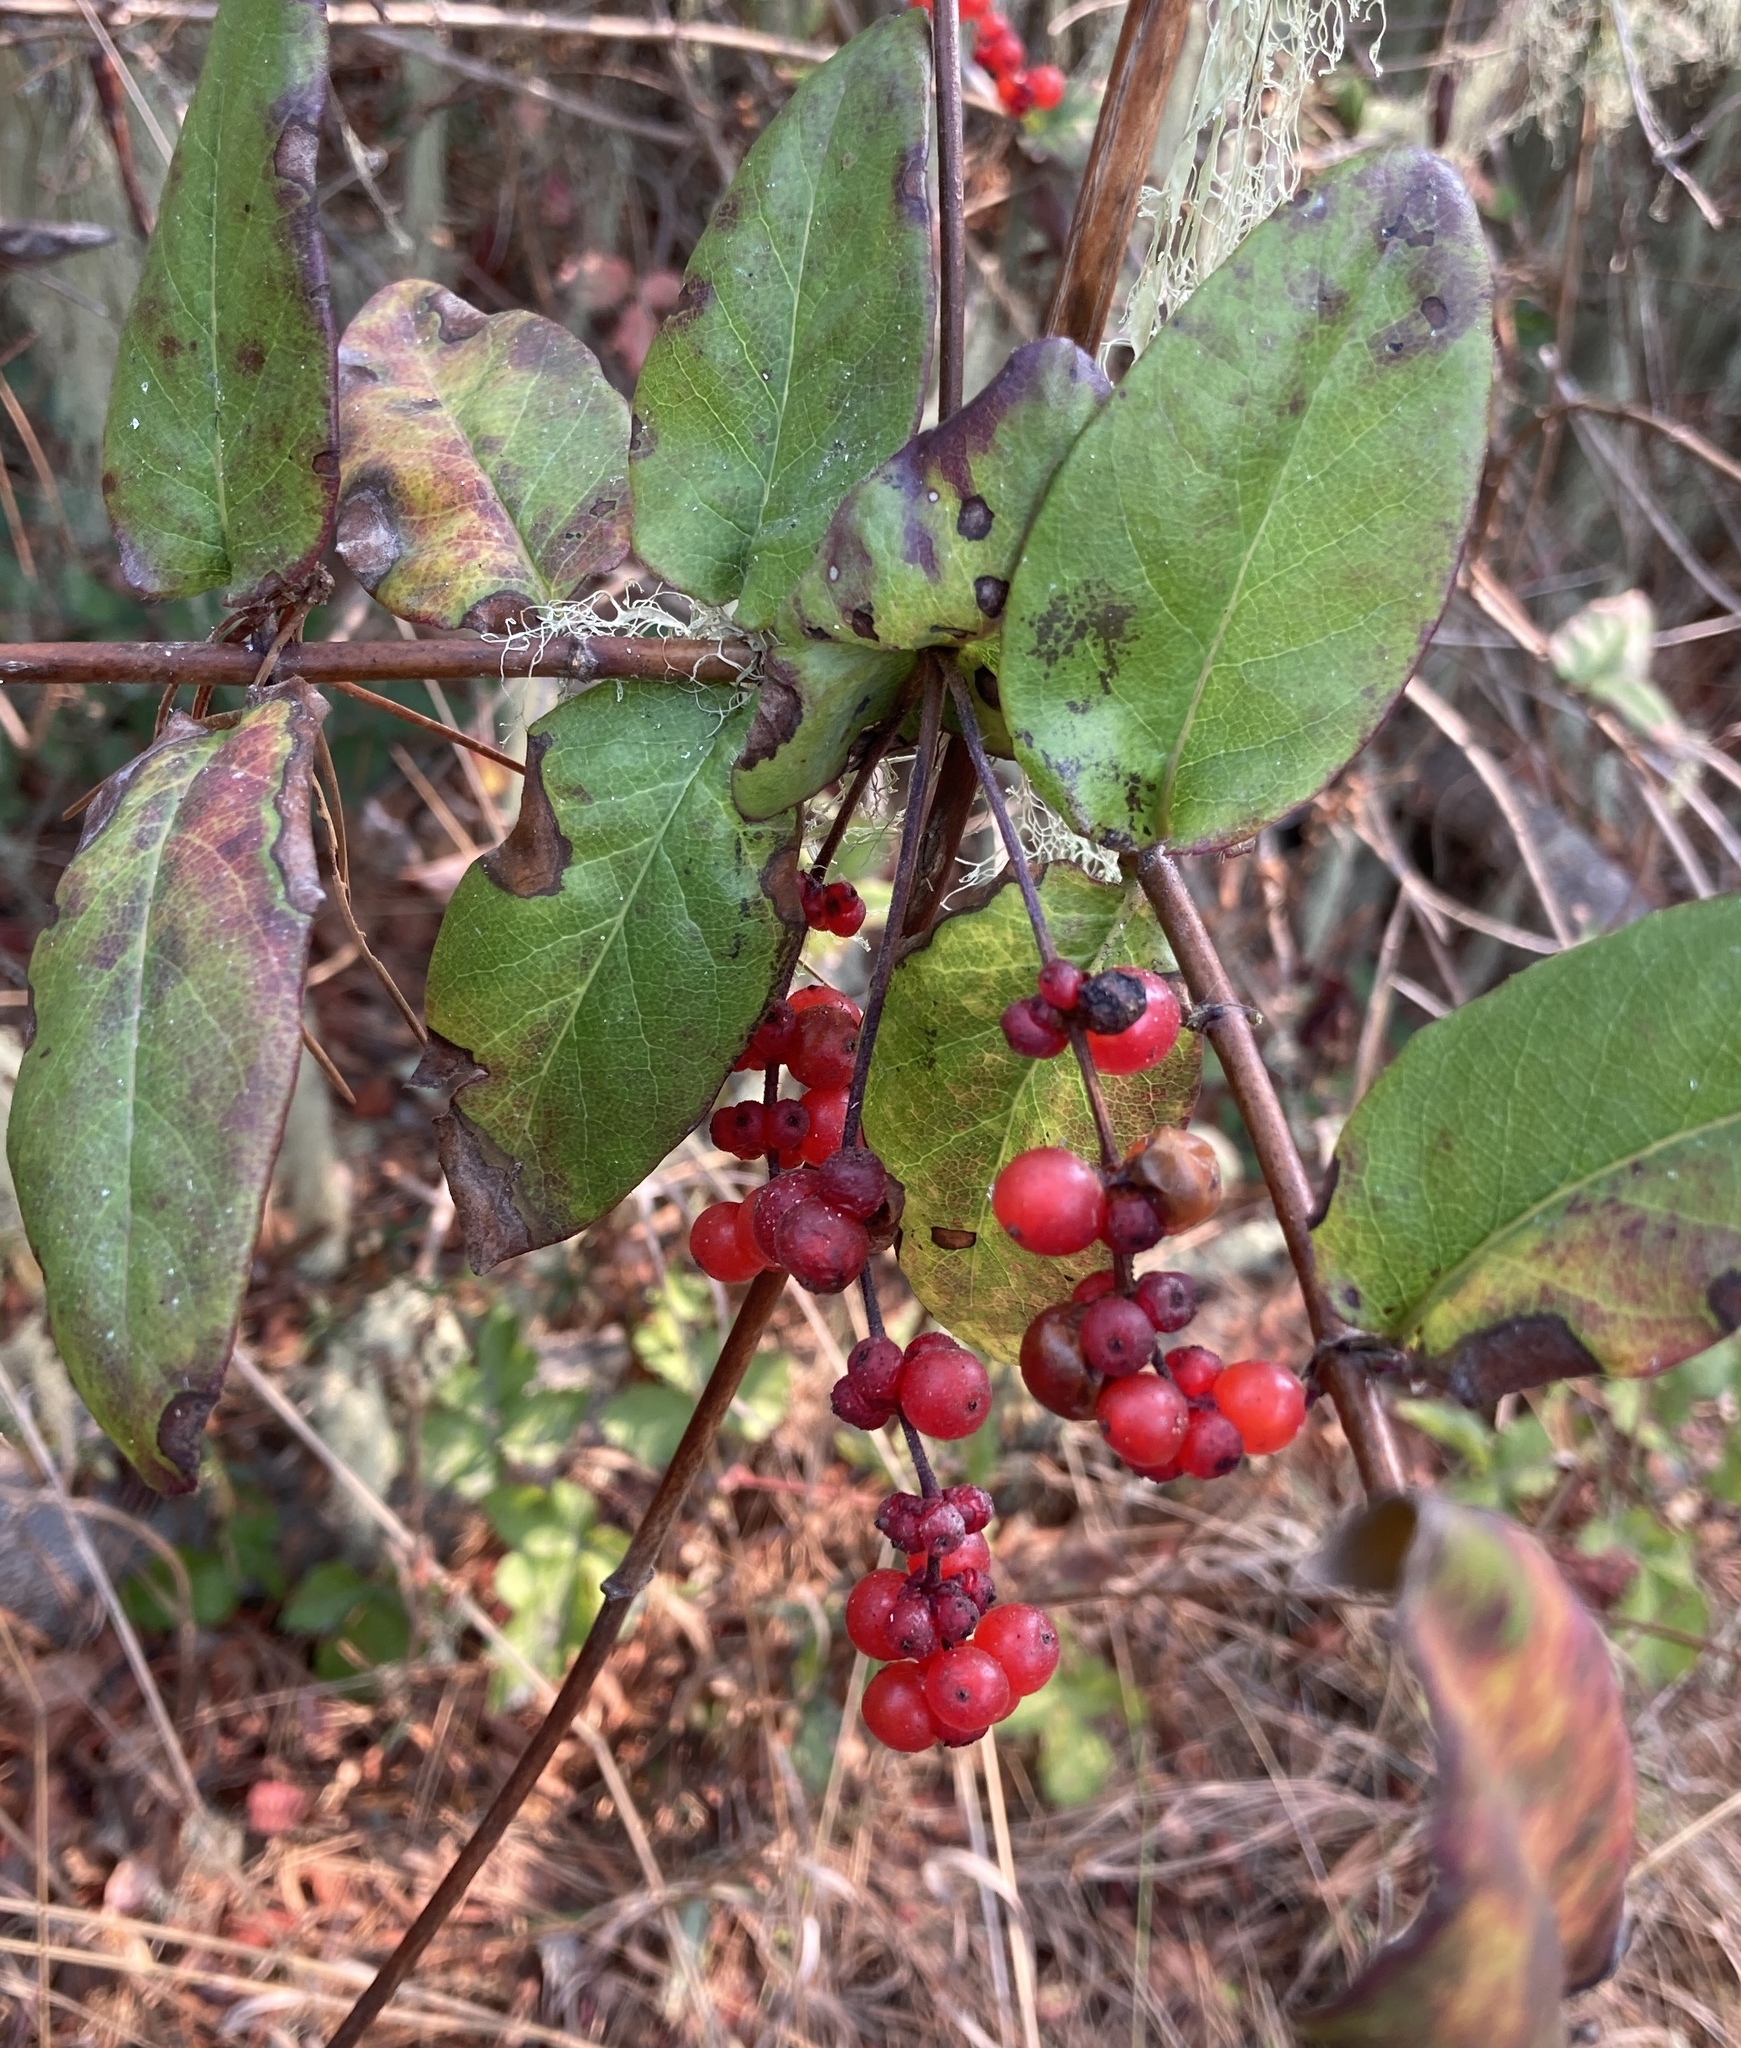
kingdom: Plantae
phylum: Tracheophyta
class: Magnoliopsida
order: Dipsacales
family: Caprifoliaceae
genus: Lonicera
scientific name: Lonicera hispidula
